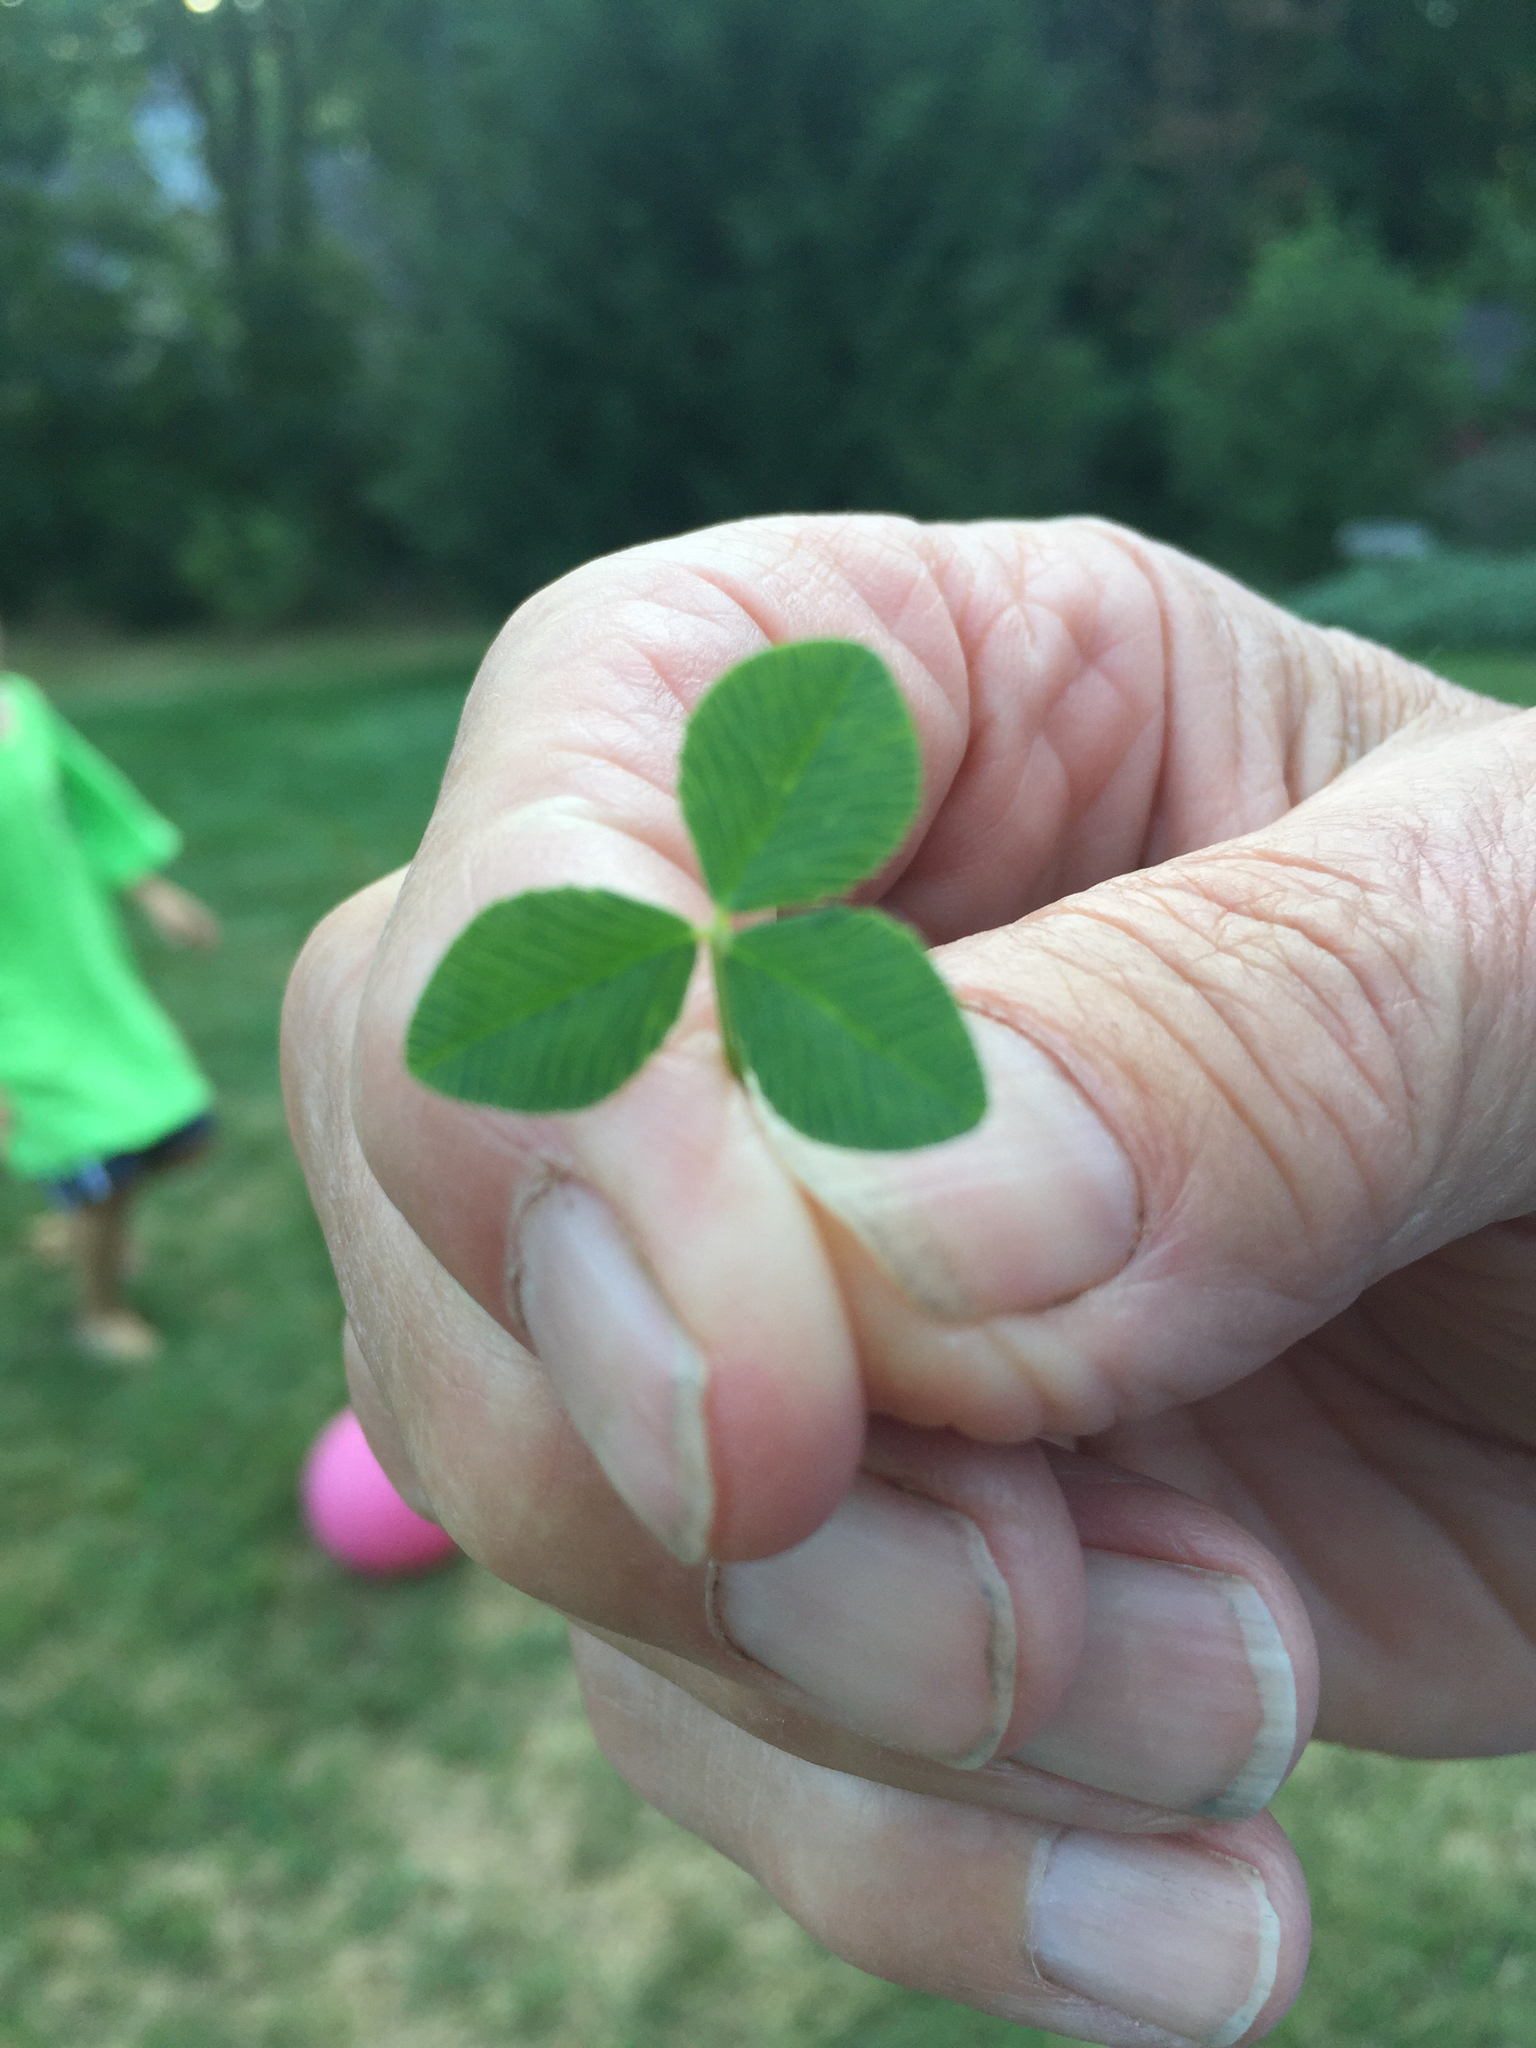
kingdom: Plantae
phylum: Tracheophyta
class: Magnoliopsida
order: Fabales
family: Fabaceae
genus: Trifolium
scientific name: Trifolium repens
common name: White clover
